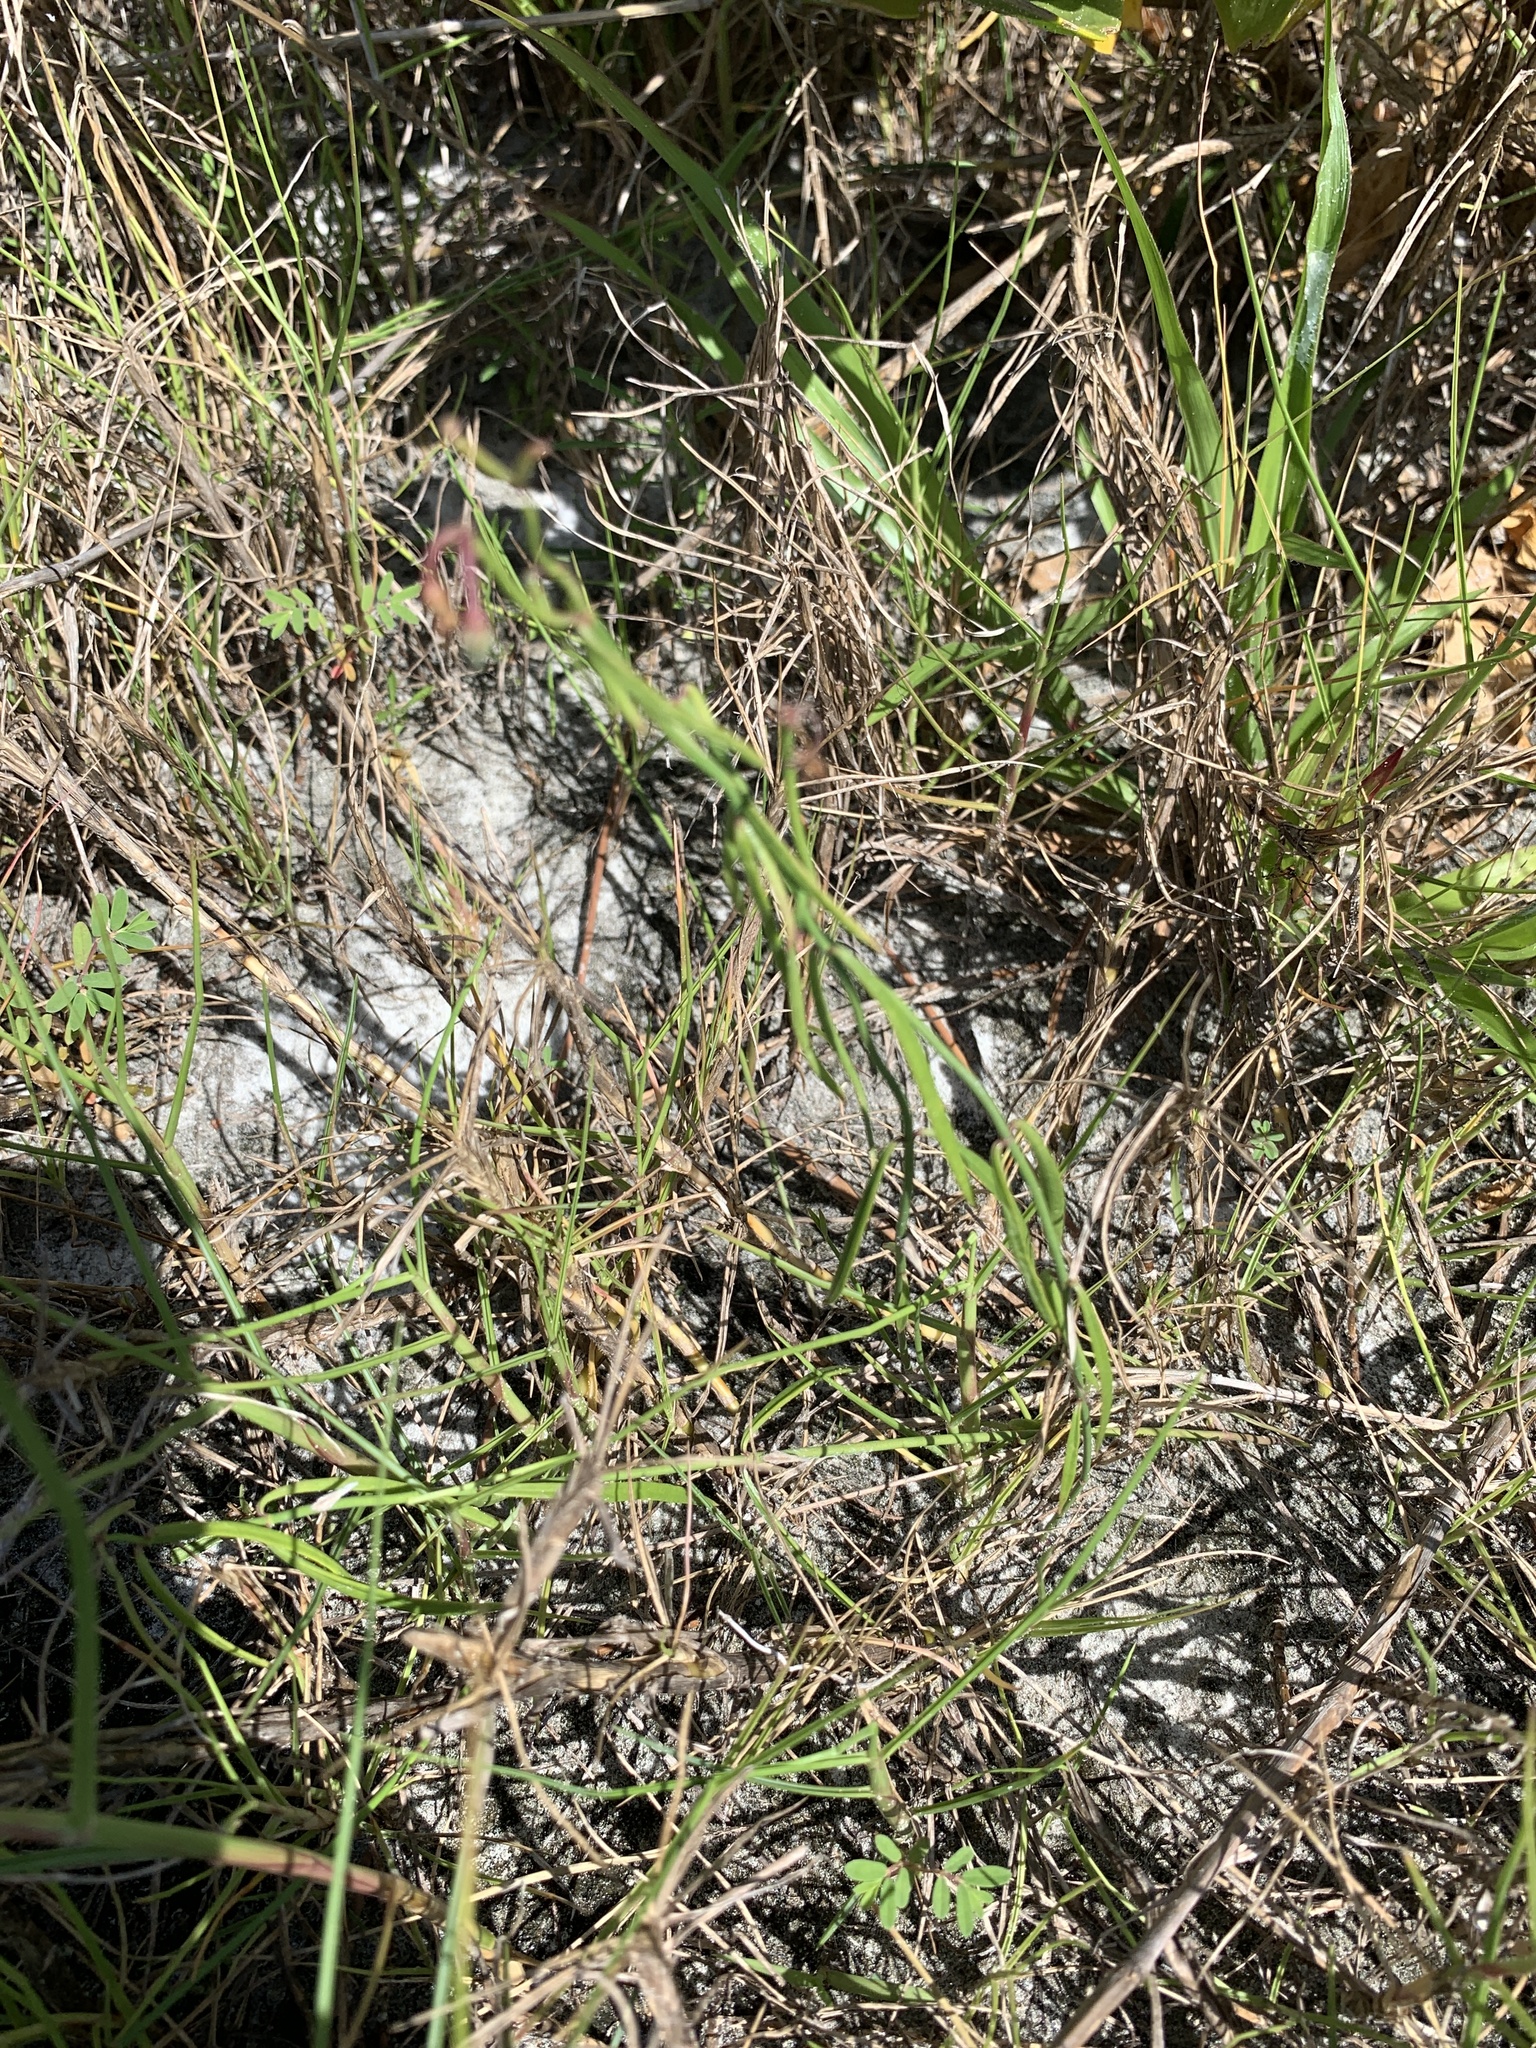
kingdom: Plantae
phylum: Tracheophyta
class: Magnoliopsida
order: Gentianales
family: Apocynaceae
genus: Pattalias
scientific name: Pattalias
